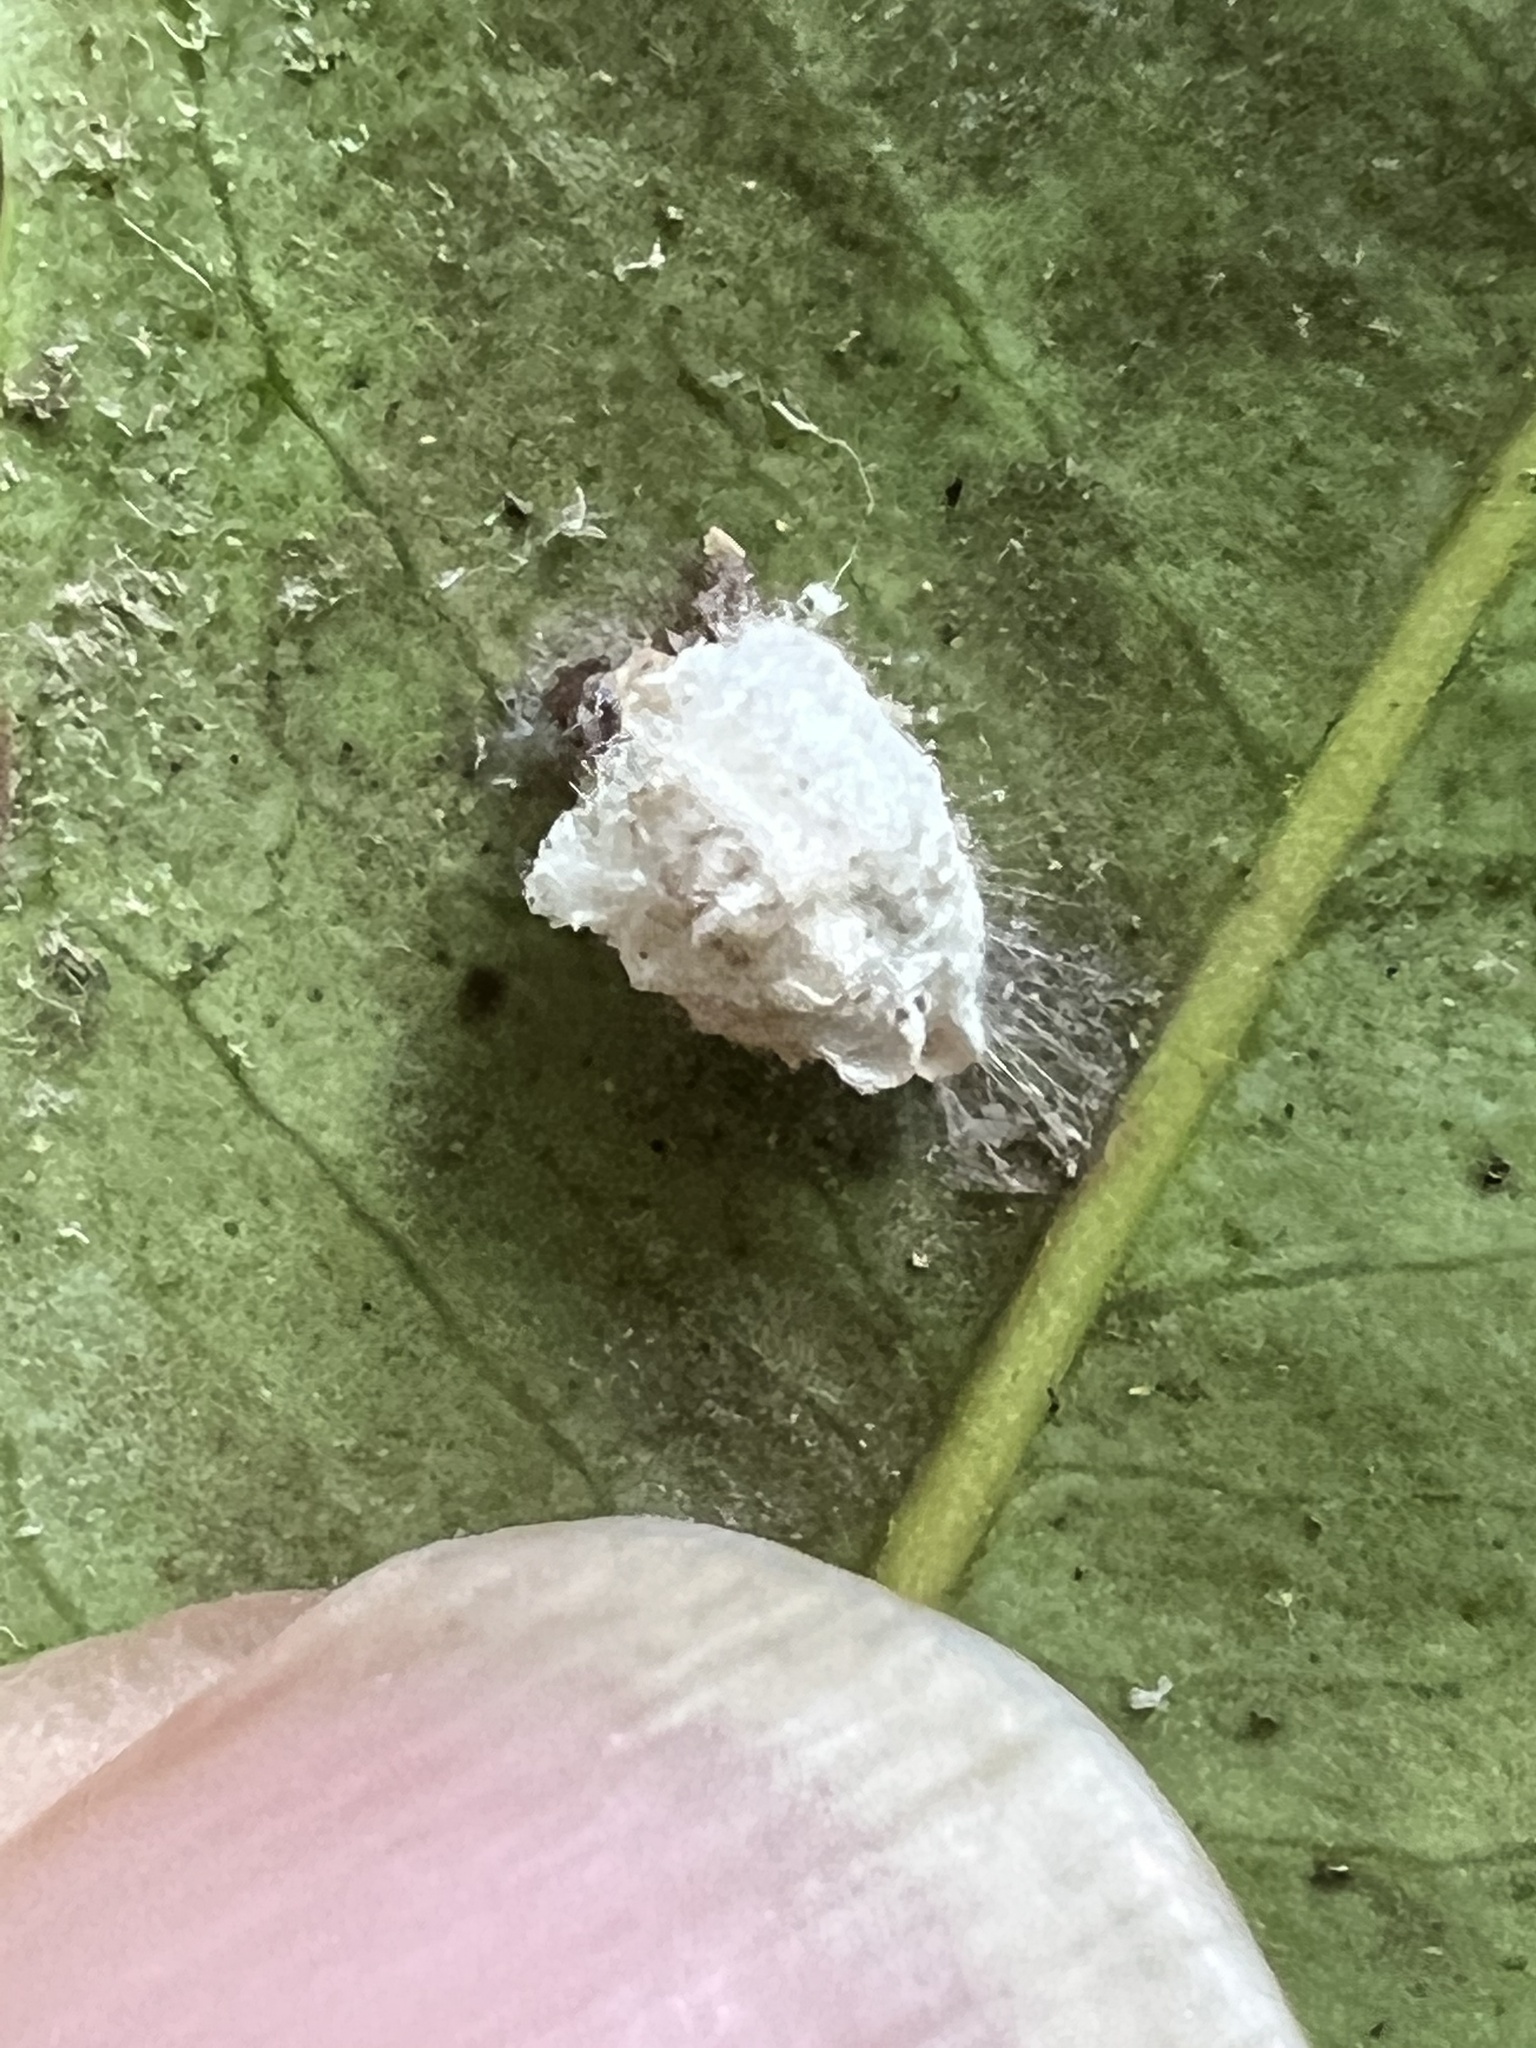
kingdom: Animalia
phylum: Arthropoda
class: Insecta
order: Lepidoptera
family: Epipyropidae
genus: Fulgoraecia
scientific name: Fulgoraecia exigua
